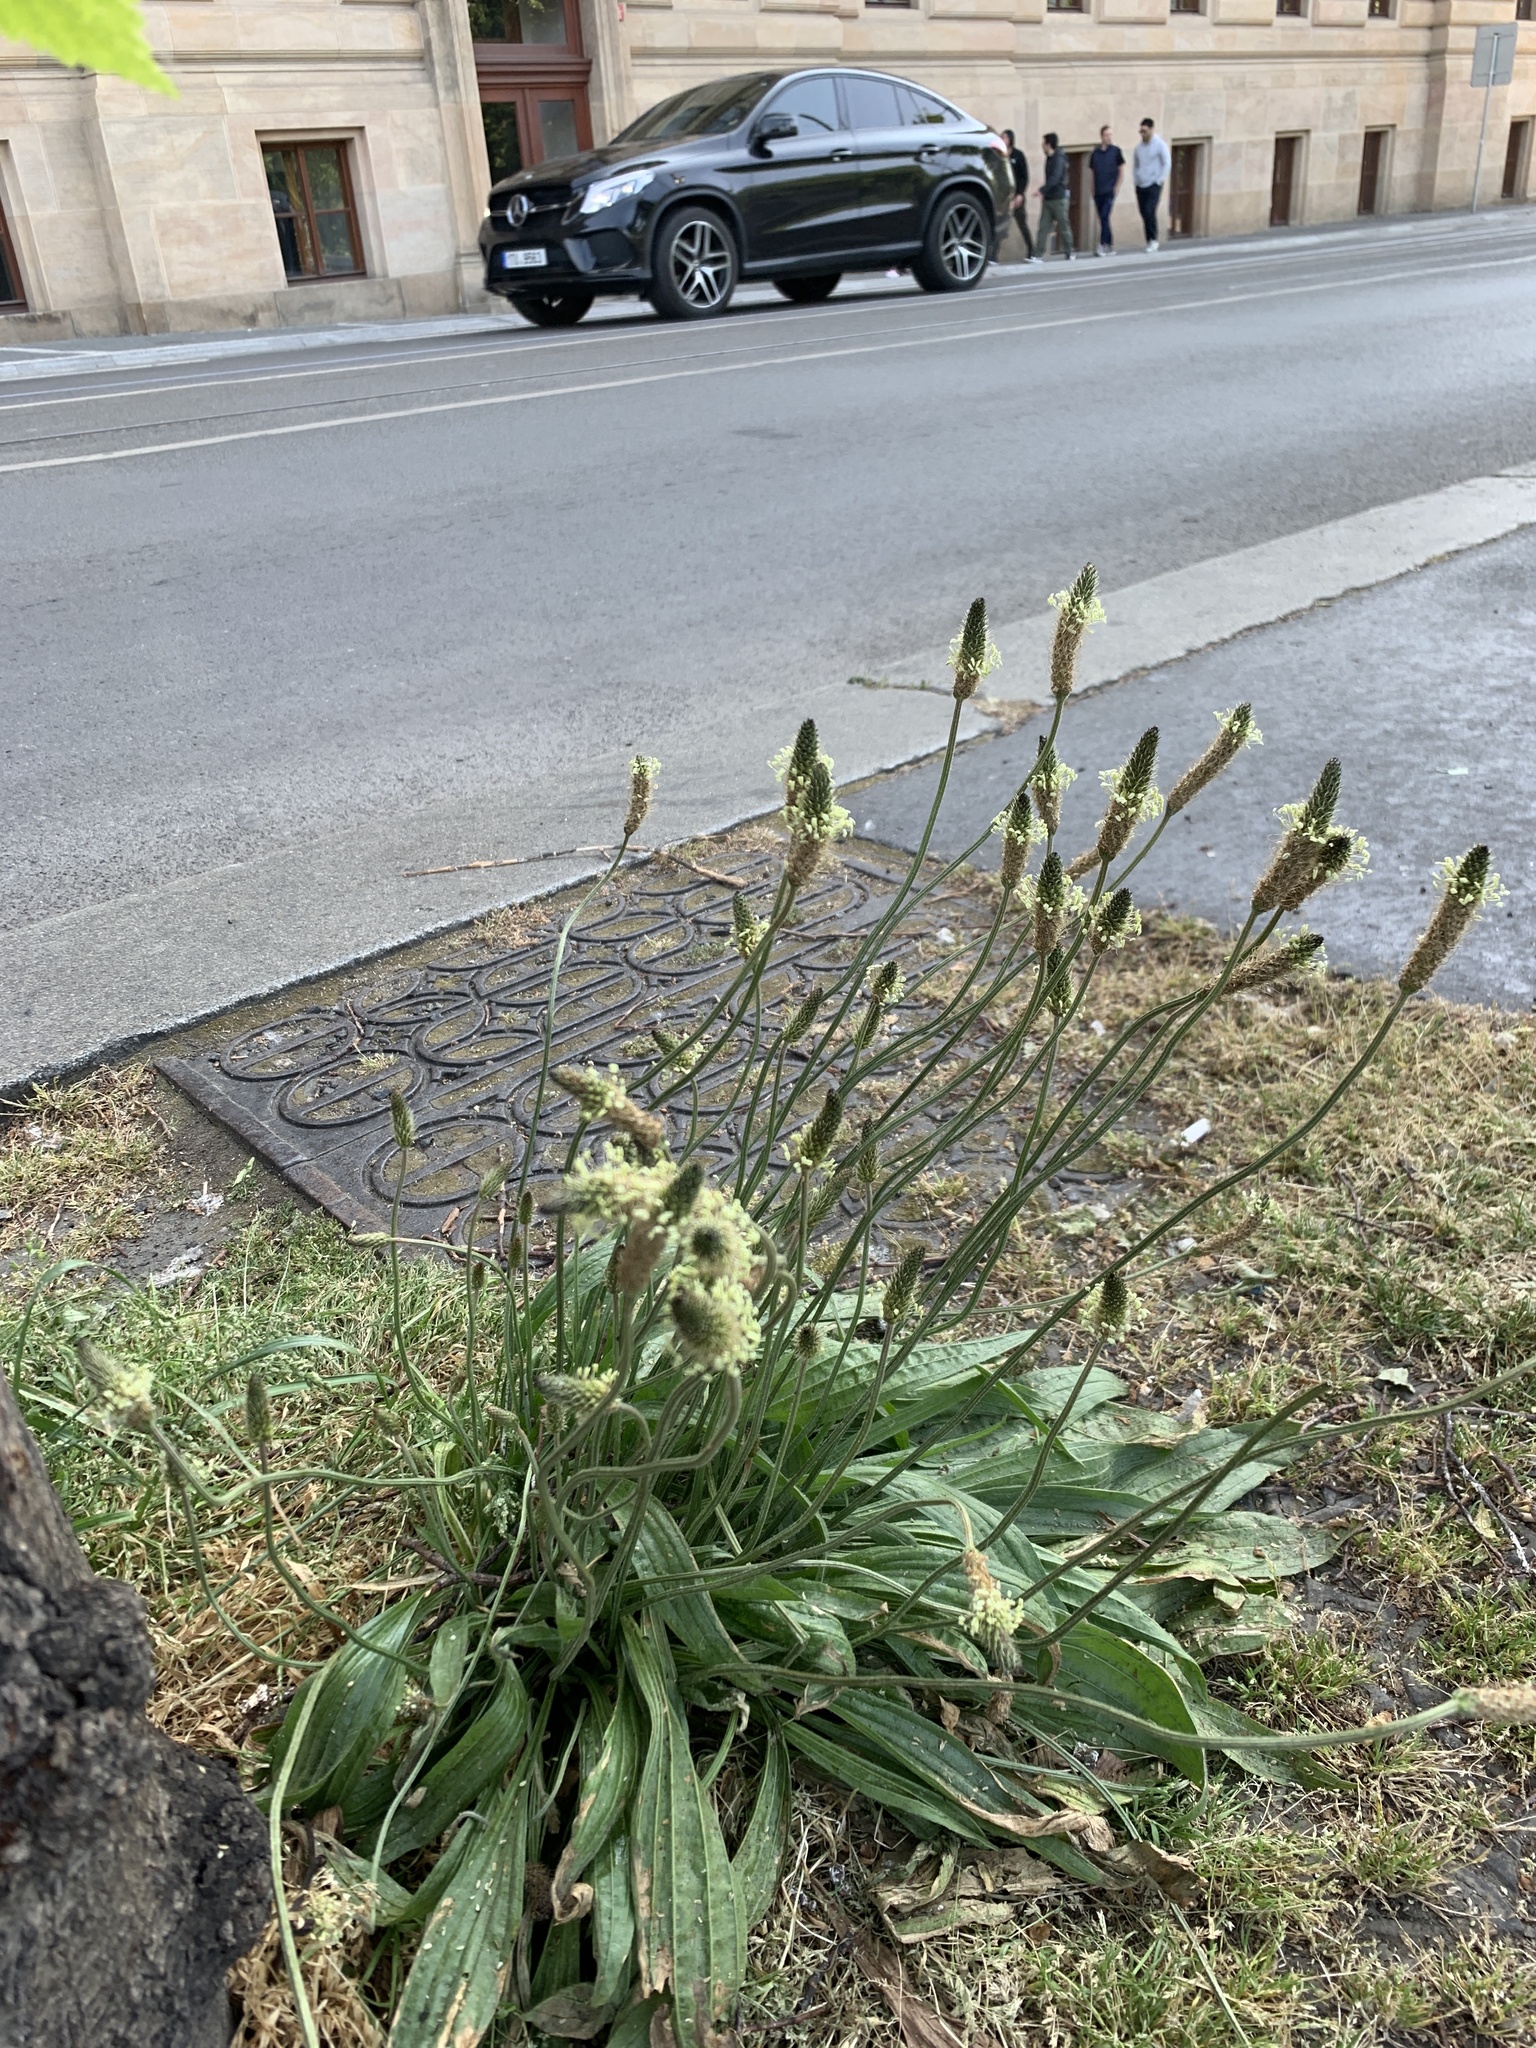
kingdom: Plantae
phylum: Tracheophyta
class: Magnoliopsida
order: Lamiales
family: Plantaginaceae
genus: Plantago
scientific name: Plantago lanceolata
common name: Ribwort plantain
